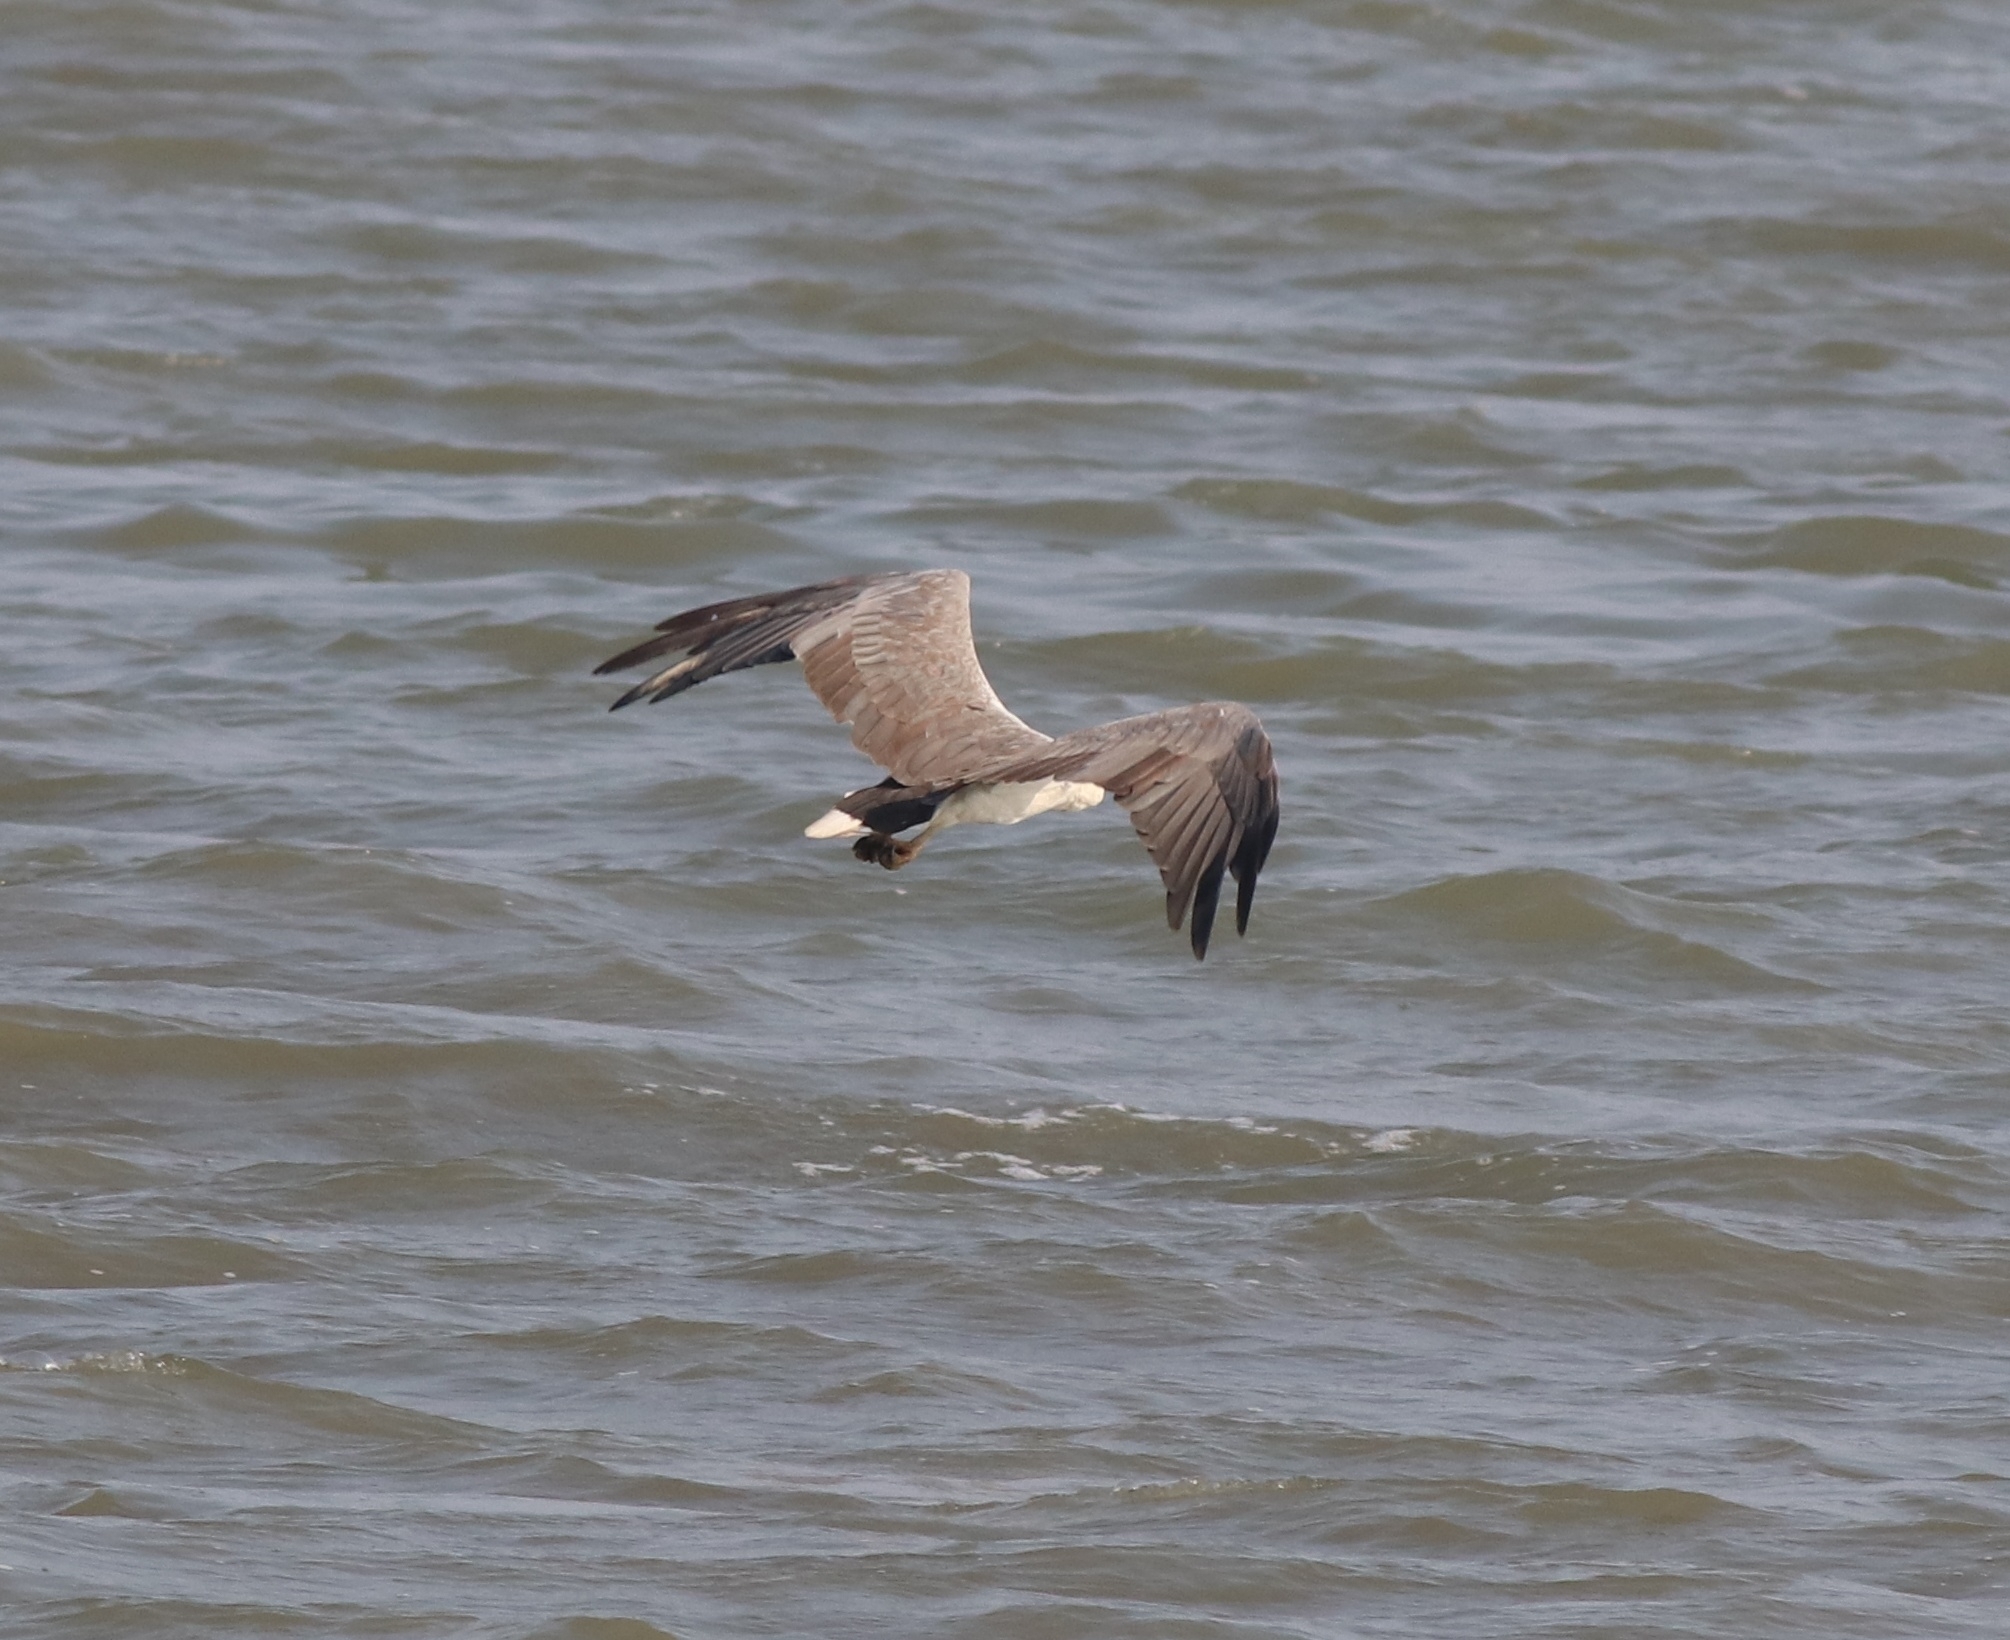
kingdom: Animalia
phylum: Chordata
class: Aves
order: Accipitriformes
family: Accipitridae
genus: Haliaeetus
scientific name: Haliaeetus leucogaster
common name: White-bellied sea eagle
